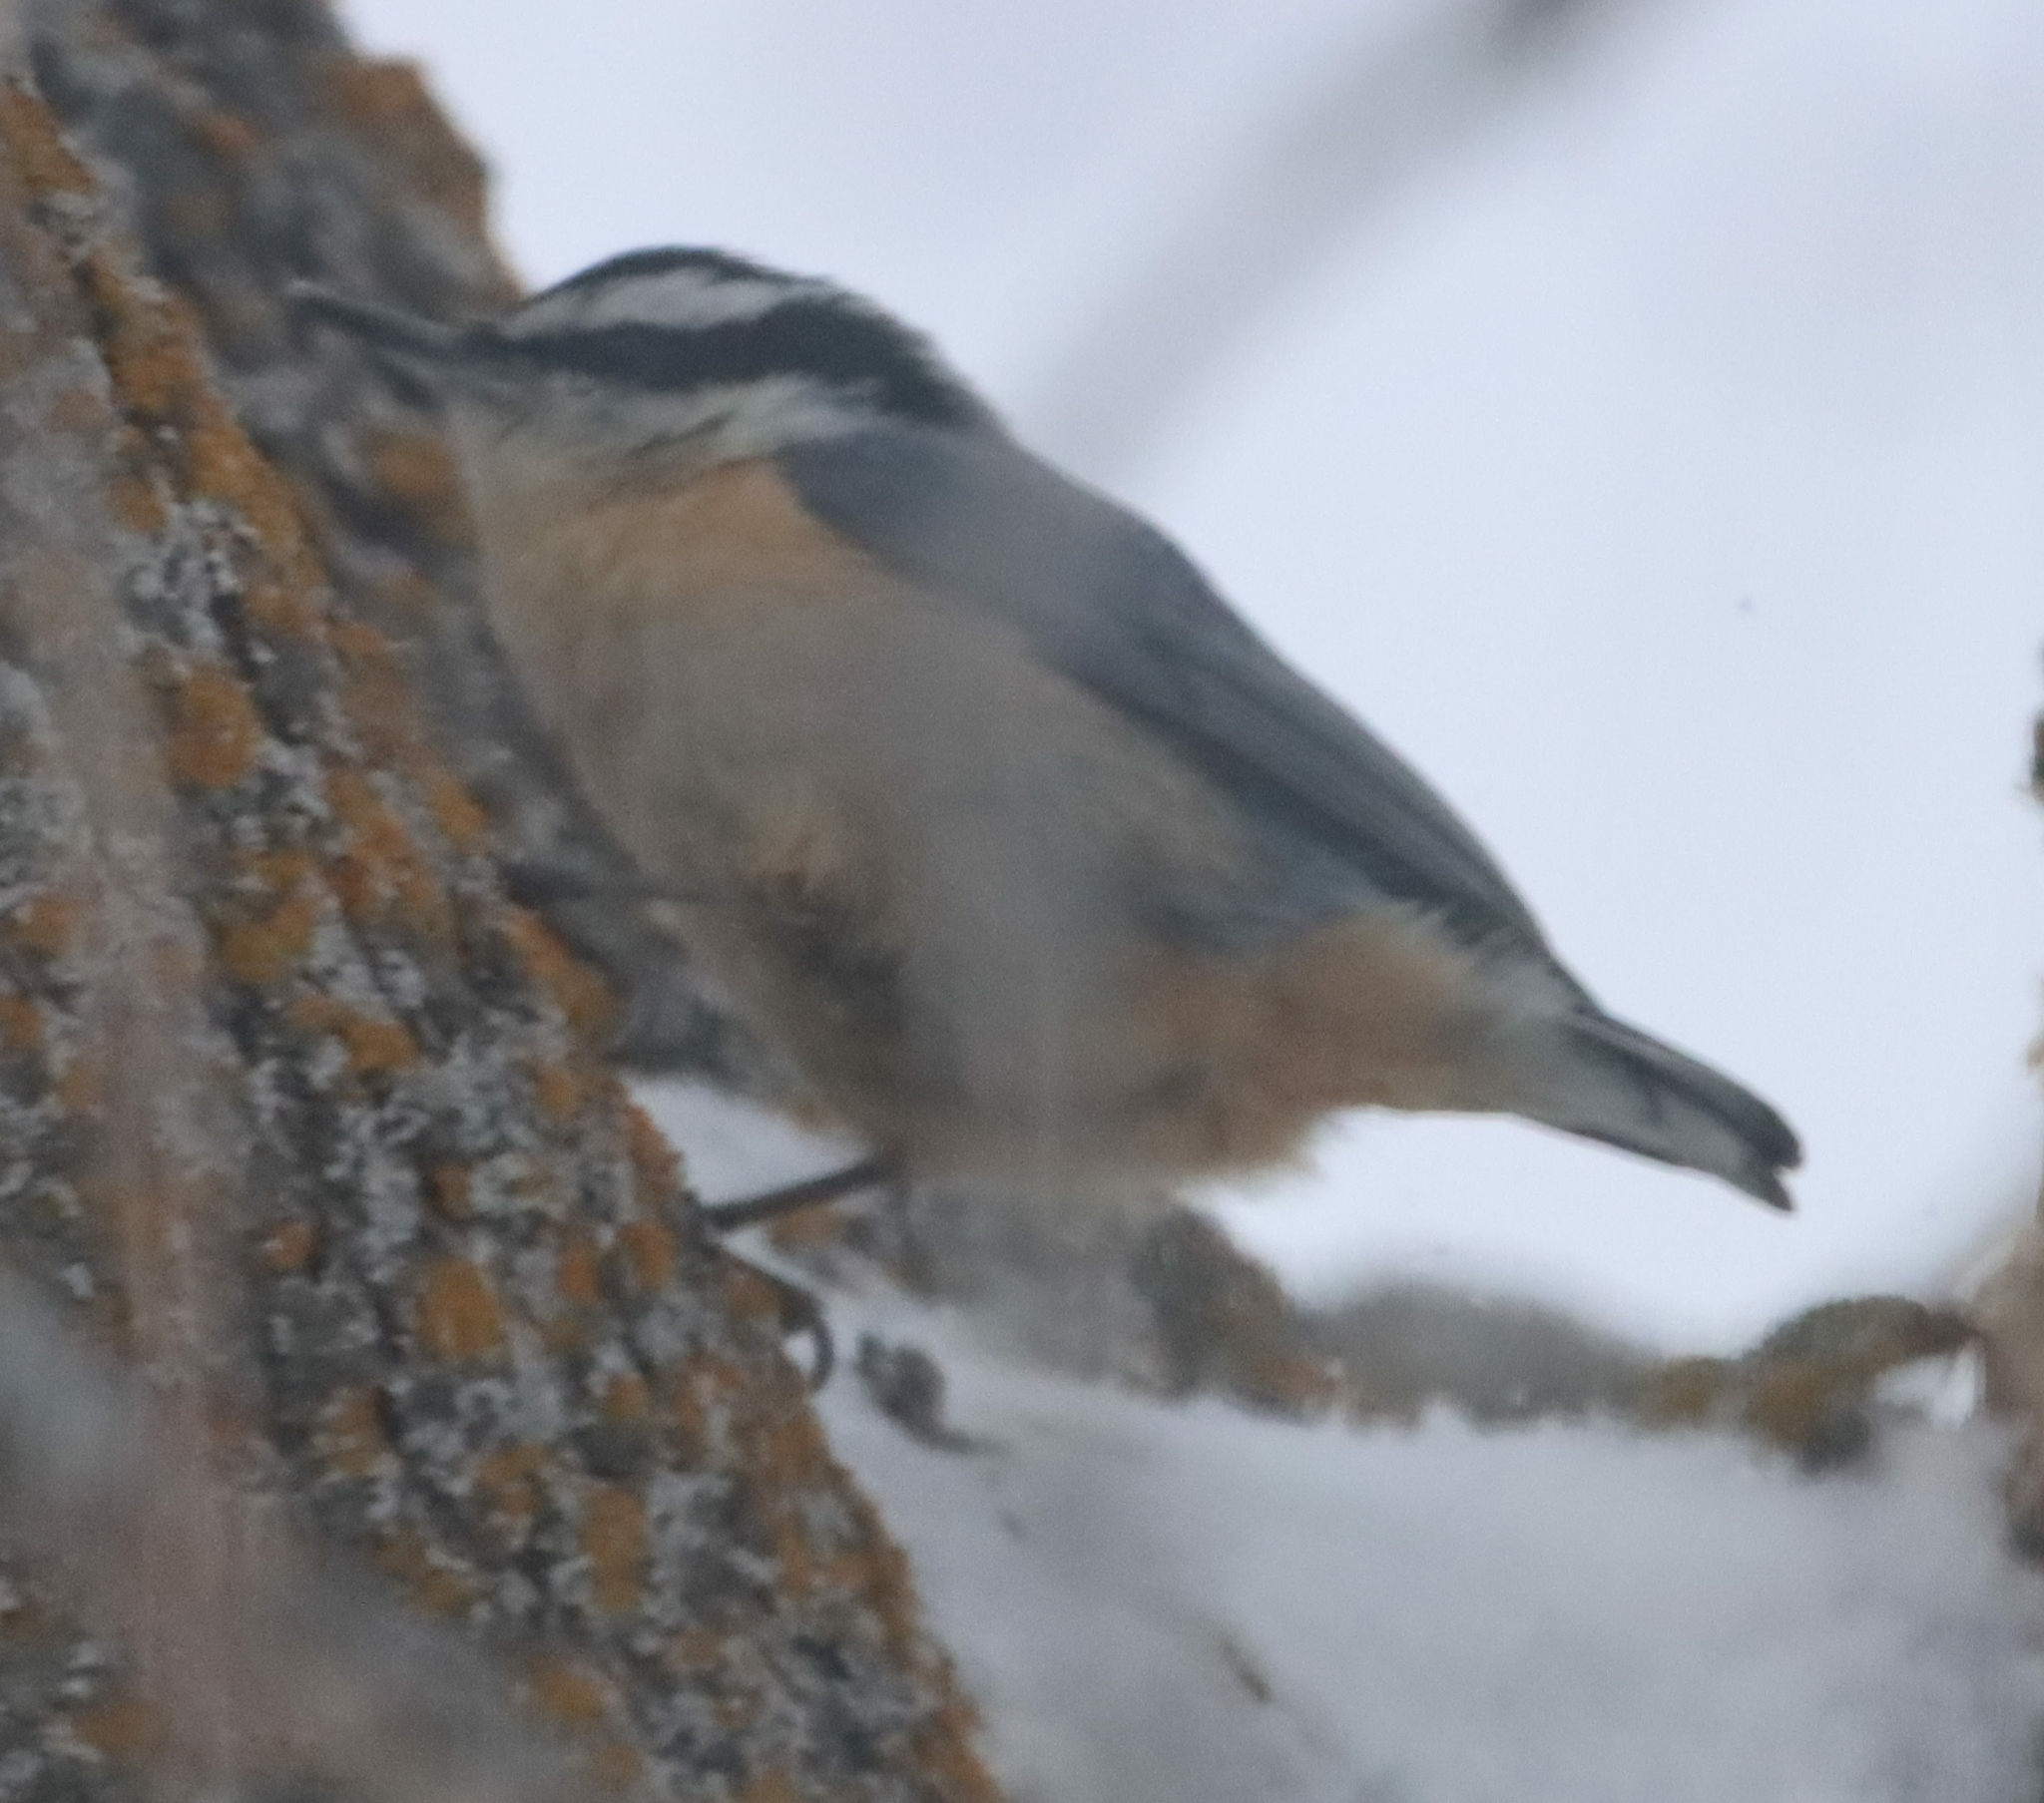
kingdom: Animalia
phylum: Chordata
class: Aves
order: Passeriformes
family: Sittidae
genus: Sitta
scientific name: Sitta canadensis
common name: Red-breasted nuthatch
